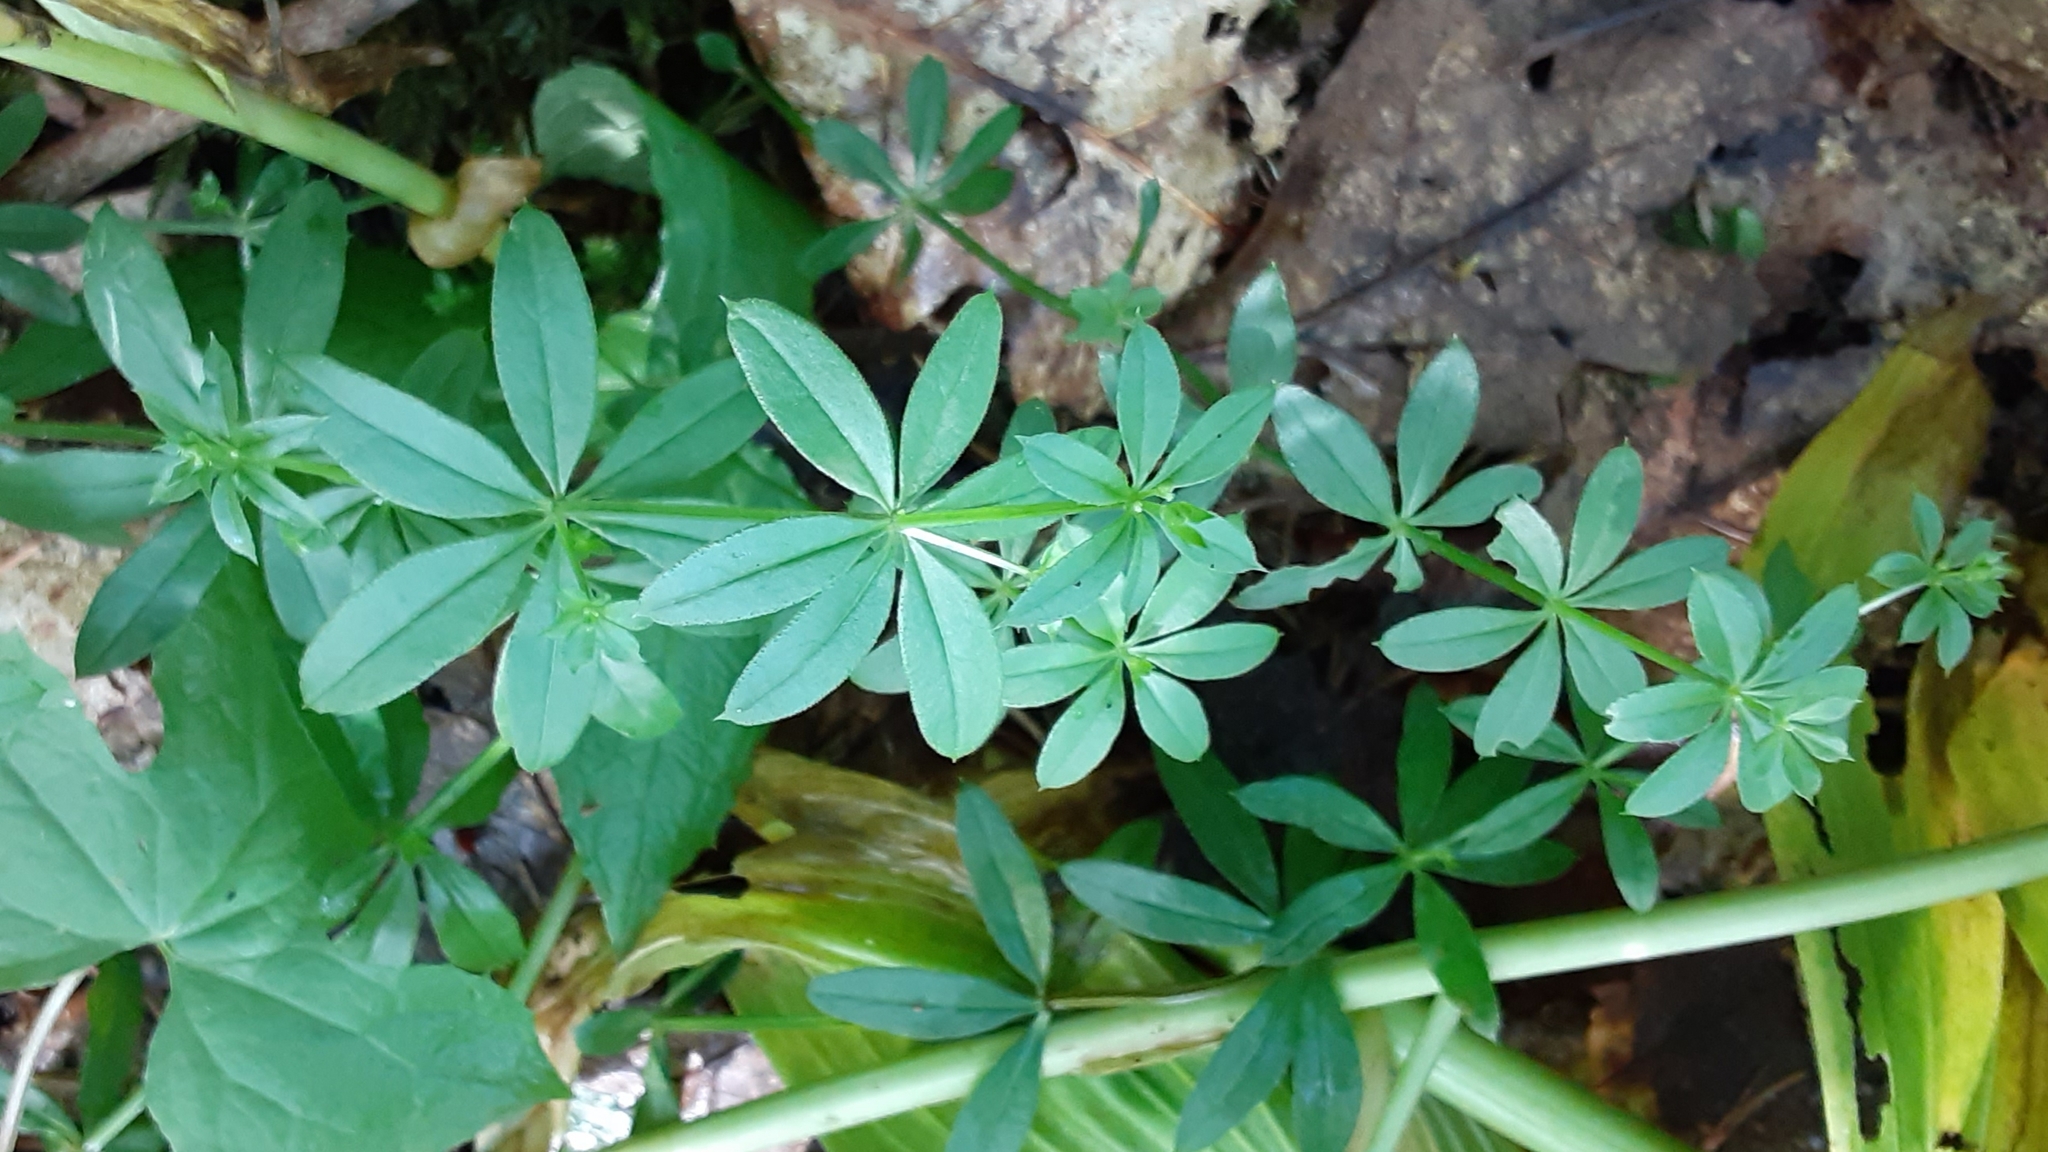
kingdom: Plantae
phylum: Tracheophyta
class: Magnoliopsida
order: Gentianales
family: Rubiaceae
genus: Galium
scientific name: Galium triflorum
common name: Fragrant bedstraw
